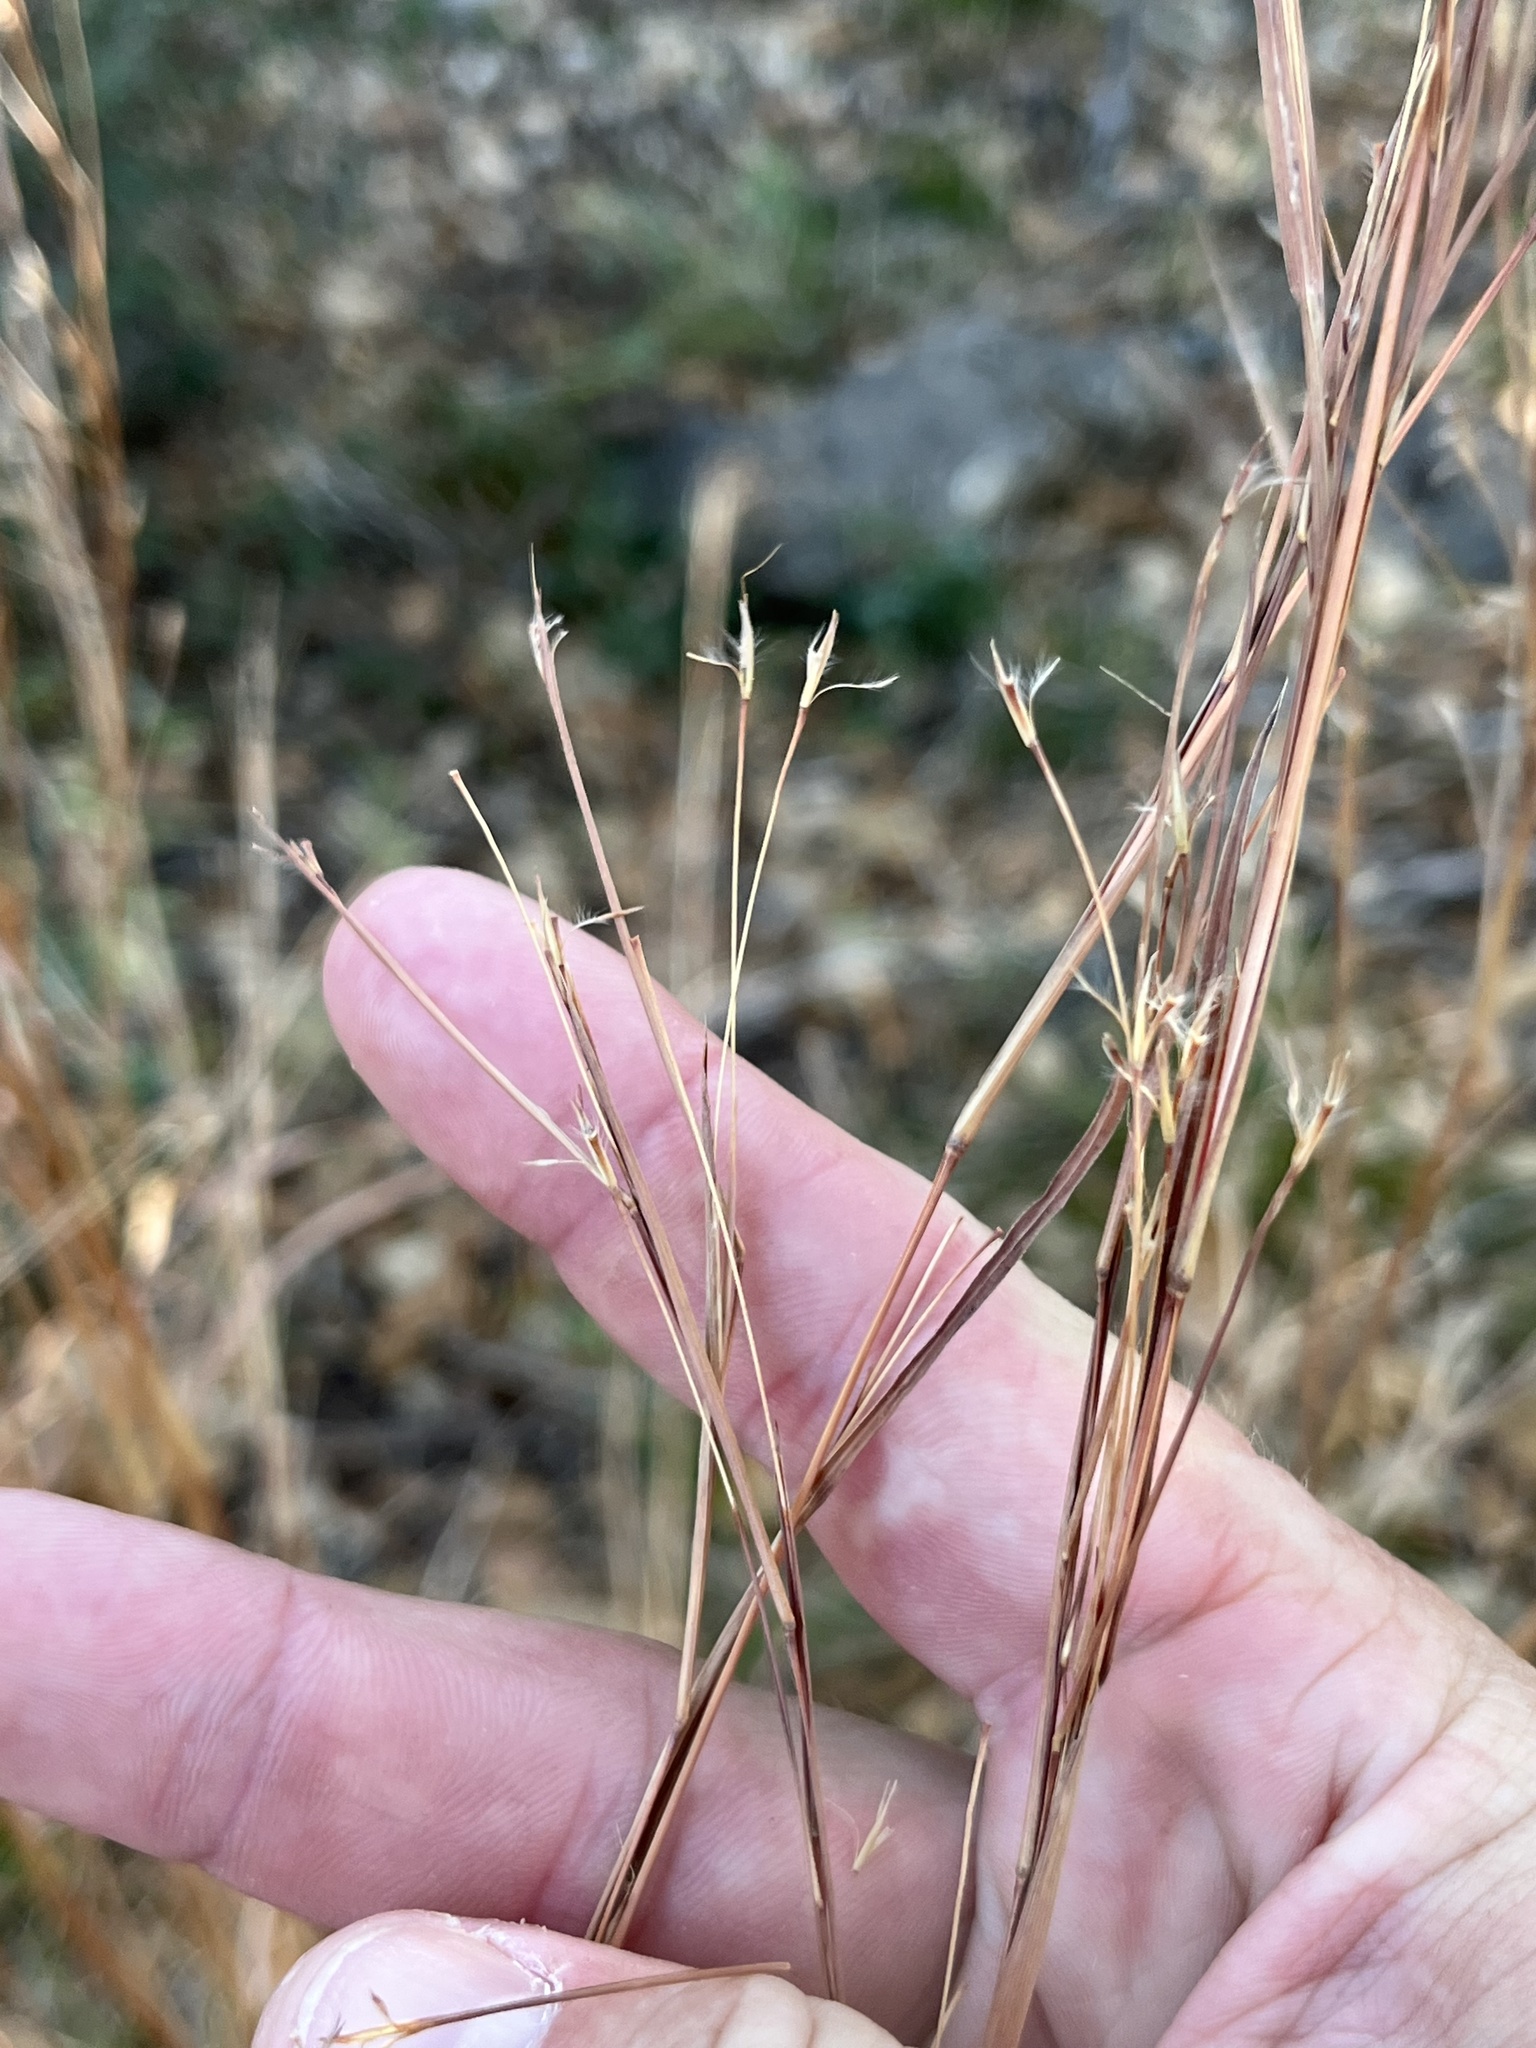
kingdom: Plantae
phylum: Tracheophyta
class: Liliopsida
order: Poales
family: Poaceae
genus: Schizachyrium
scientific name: Schizachyrium scoparium
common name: Little bluestem
